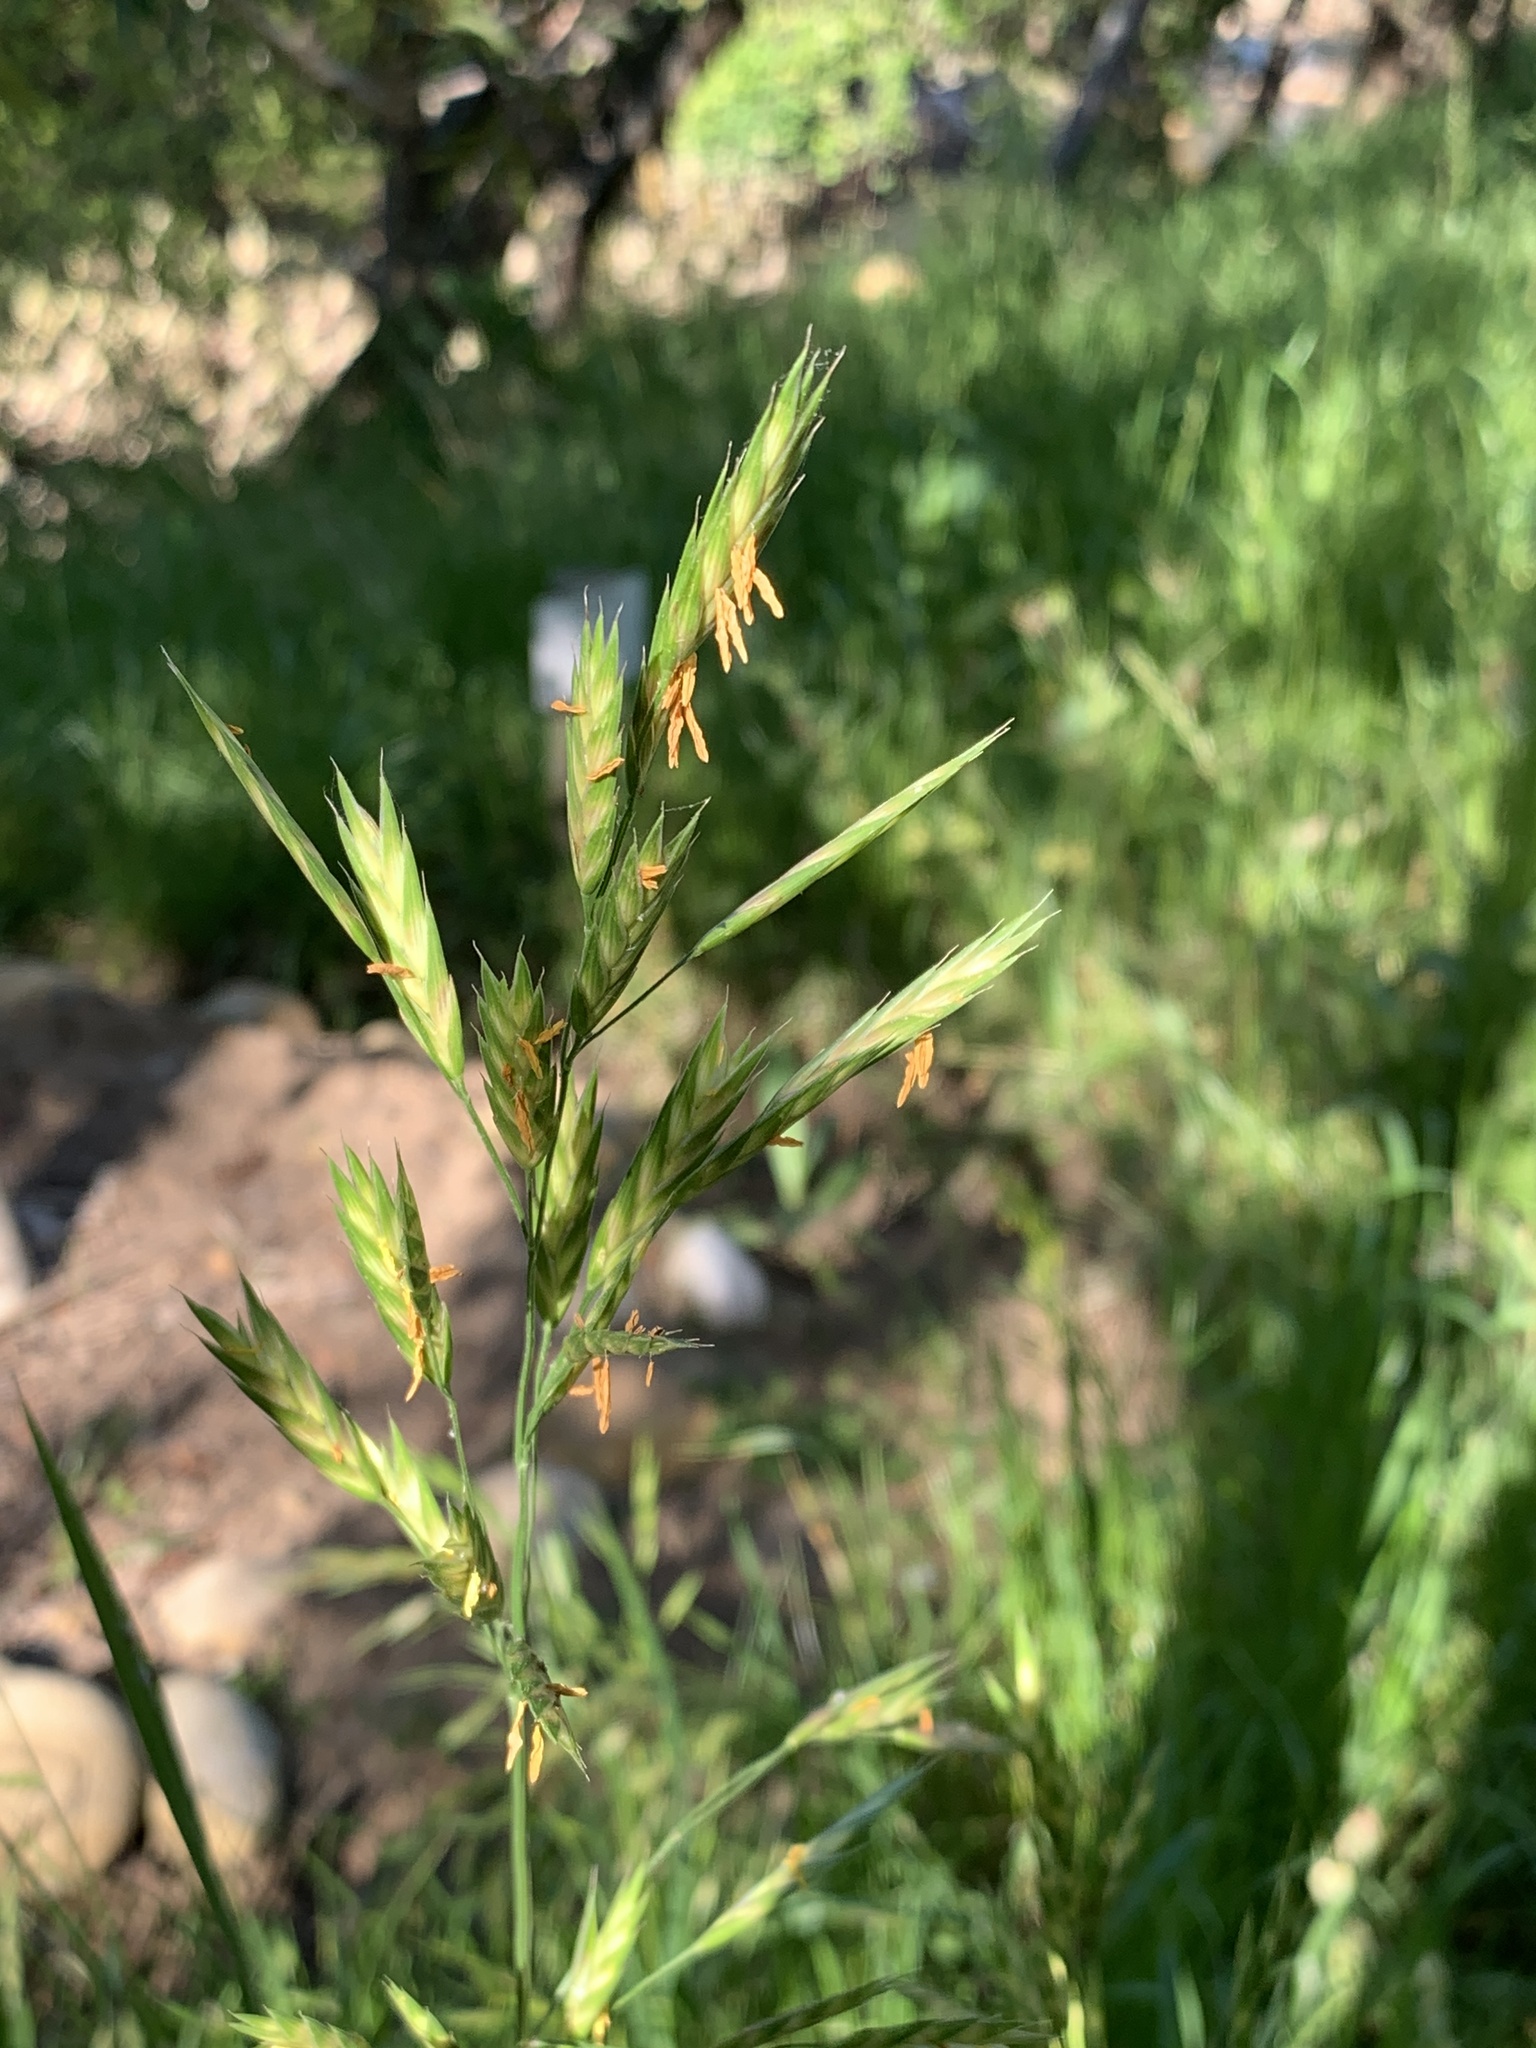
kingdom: Plantae
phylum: Tracheophyta
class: Liliopsida
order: Poales
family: Poaceae
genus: Bromus
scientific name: Bromus catharticus
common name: Rescuegrass
